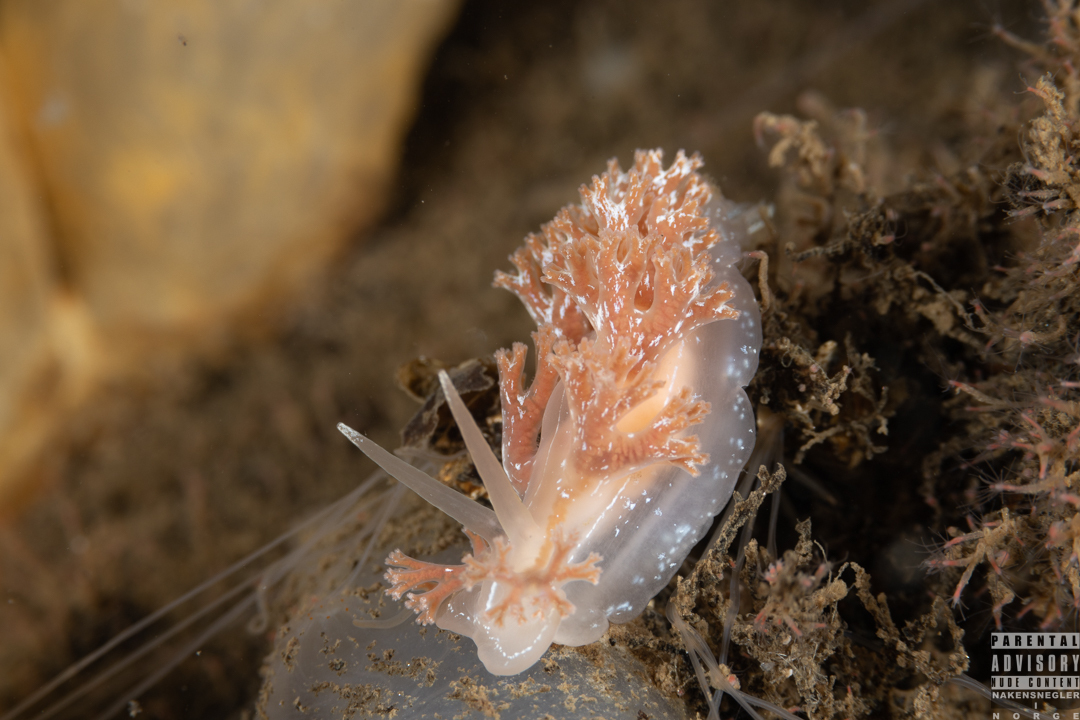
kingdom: Animalia
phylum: Mollusca
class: Gastropoda
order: Nudibranchia
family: Heroidae
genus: Hero
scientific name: Hero formosa
